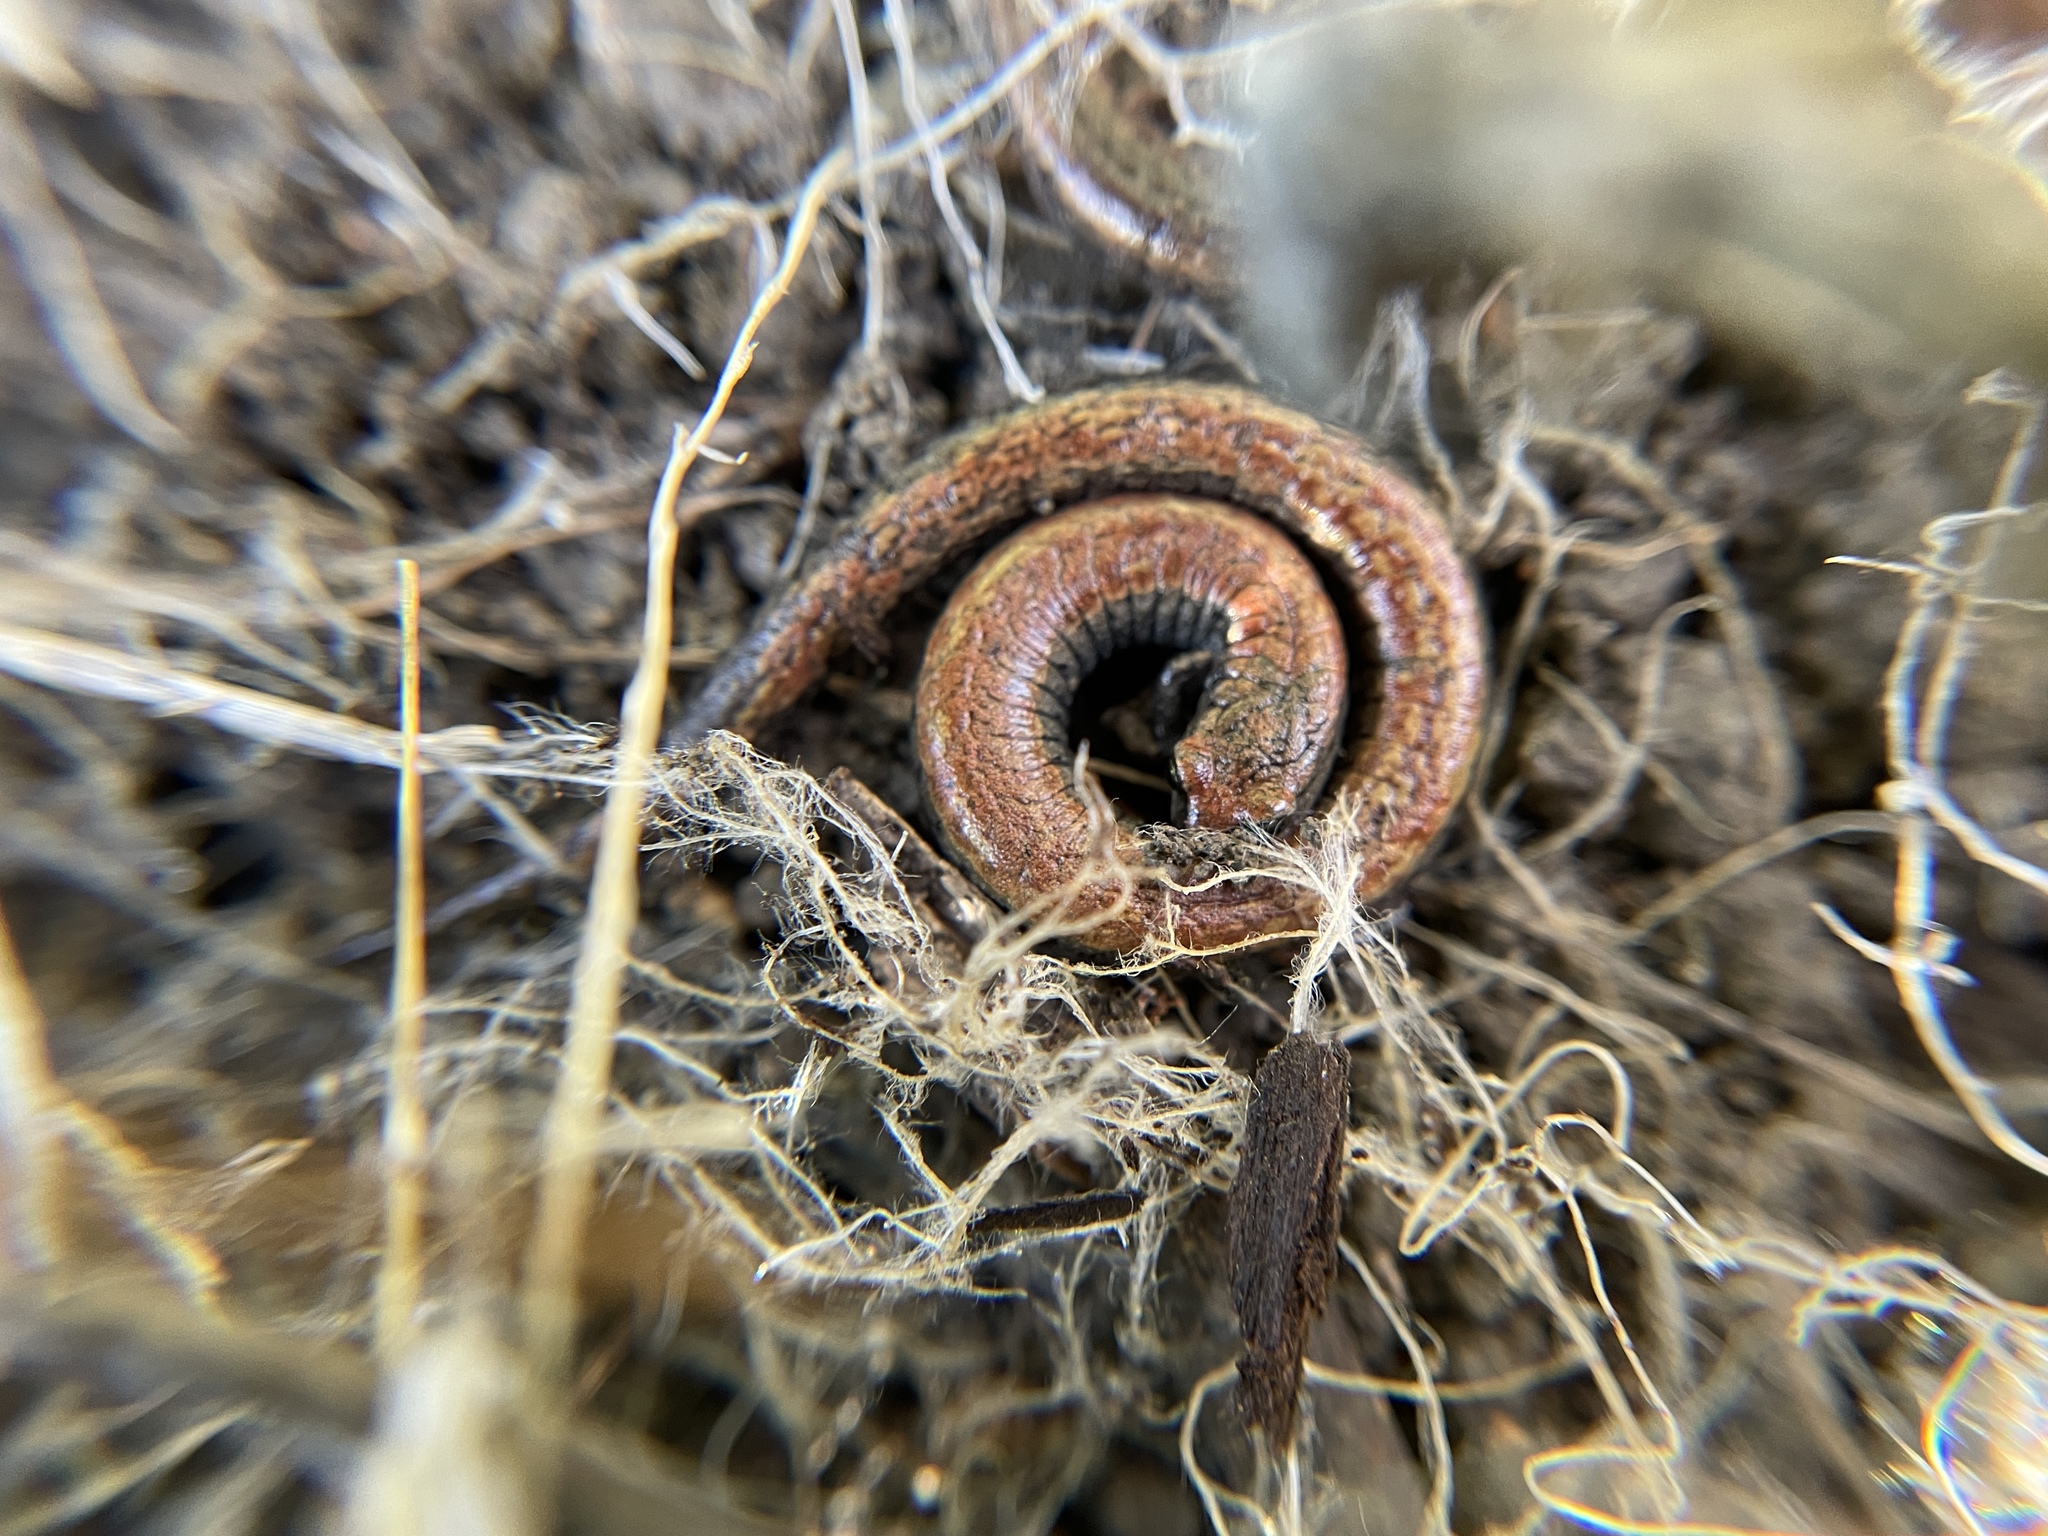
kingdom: Animalia
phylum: Chordata
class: Amphibia
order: Caudata
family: Plethodontidae
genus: Batrachoseps
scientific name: Batrachoseps attenuatus
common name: California slender salamander
